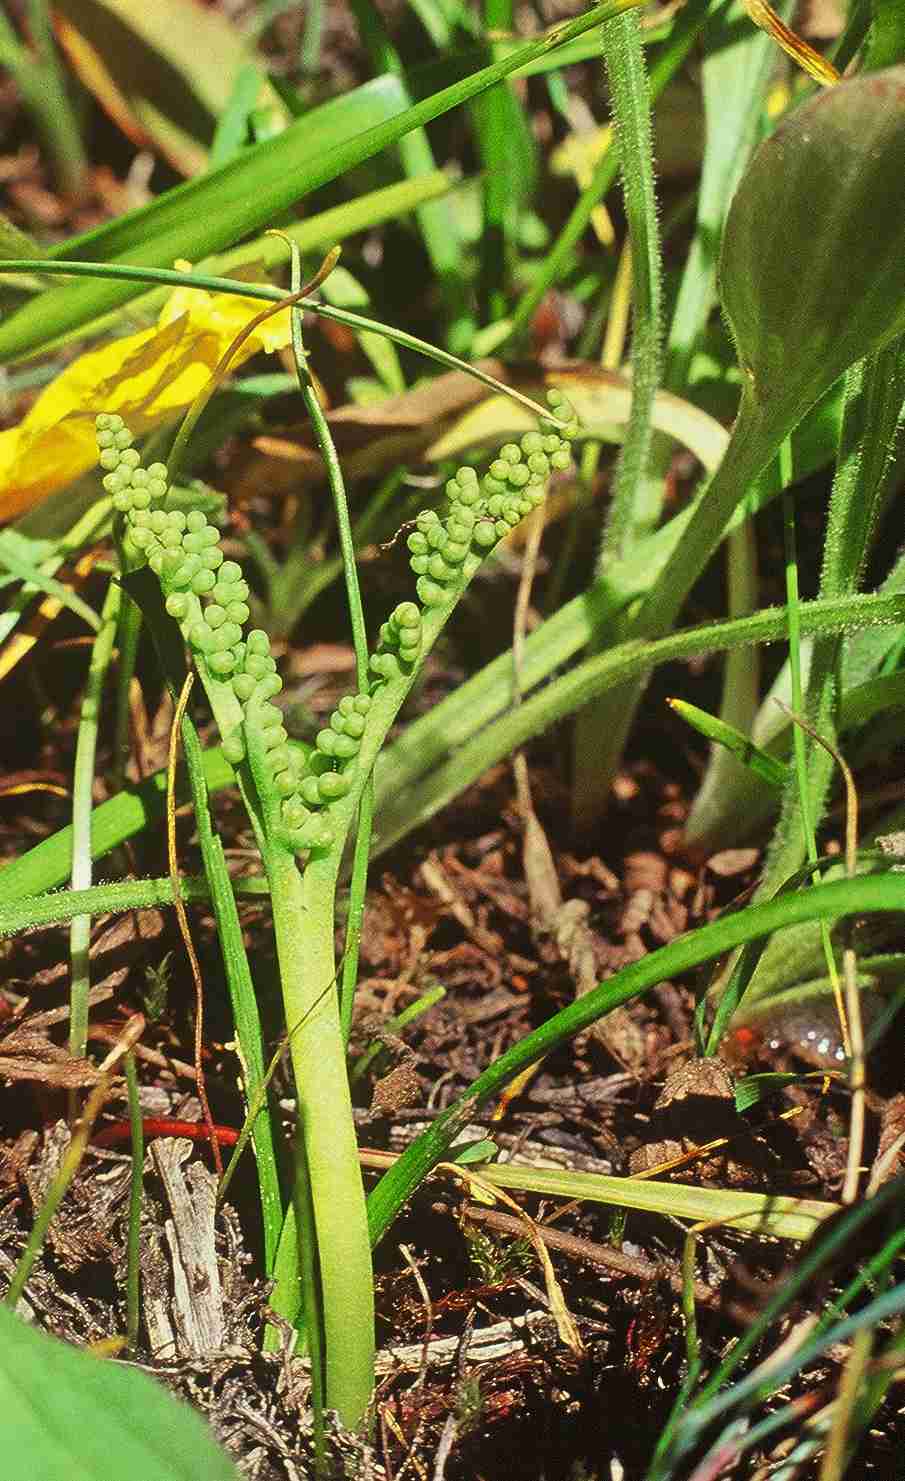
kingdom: Plantae
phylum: Tracheophyta
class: Polypodiopsida
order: Ophioglossales
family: Ophioglossaceae
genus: Botrychium
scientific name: Botrychium paradoxum
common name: Paradox moonwort
